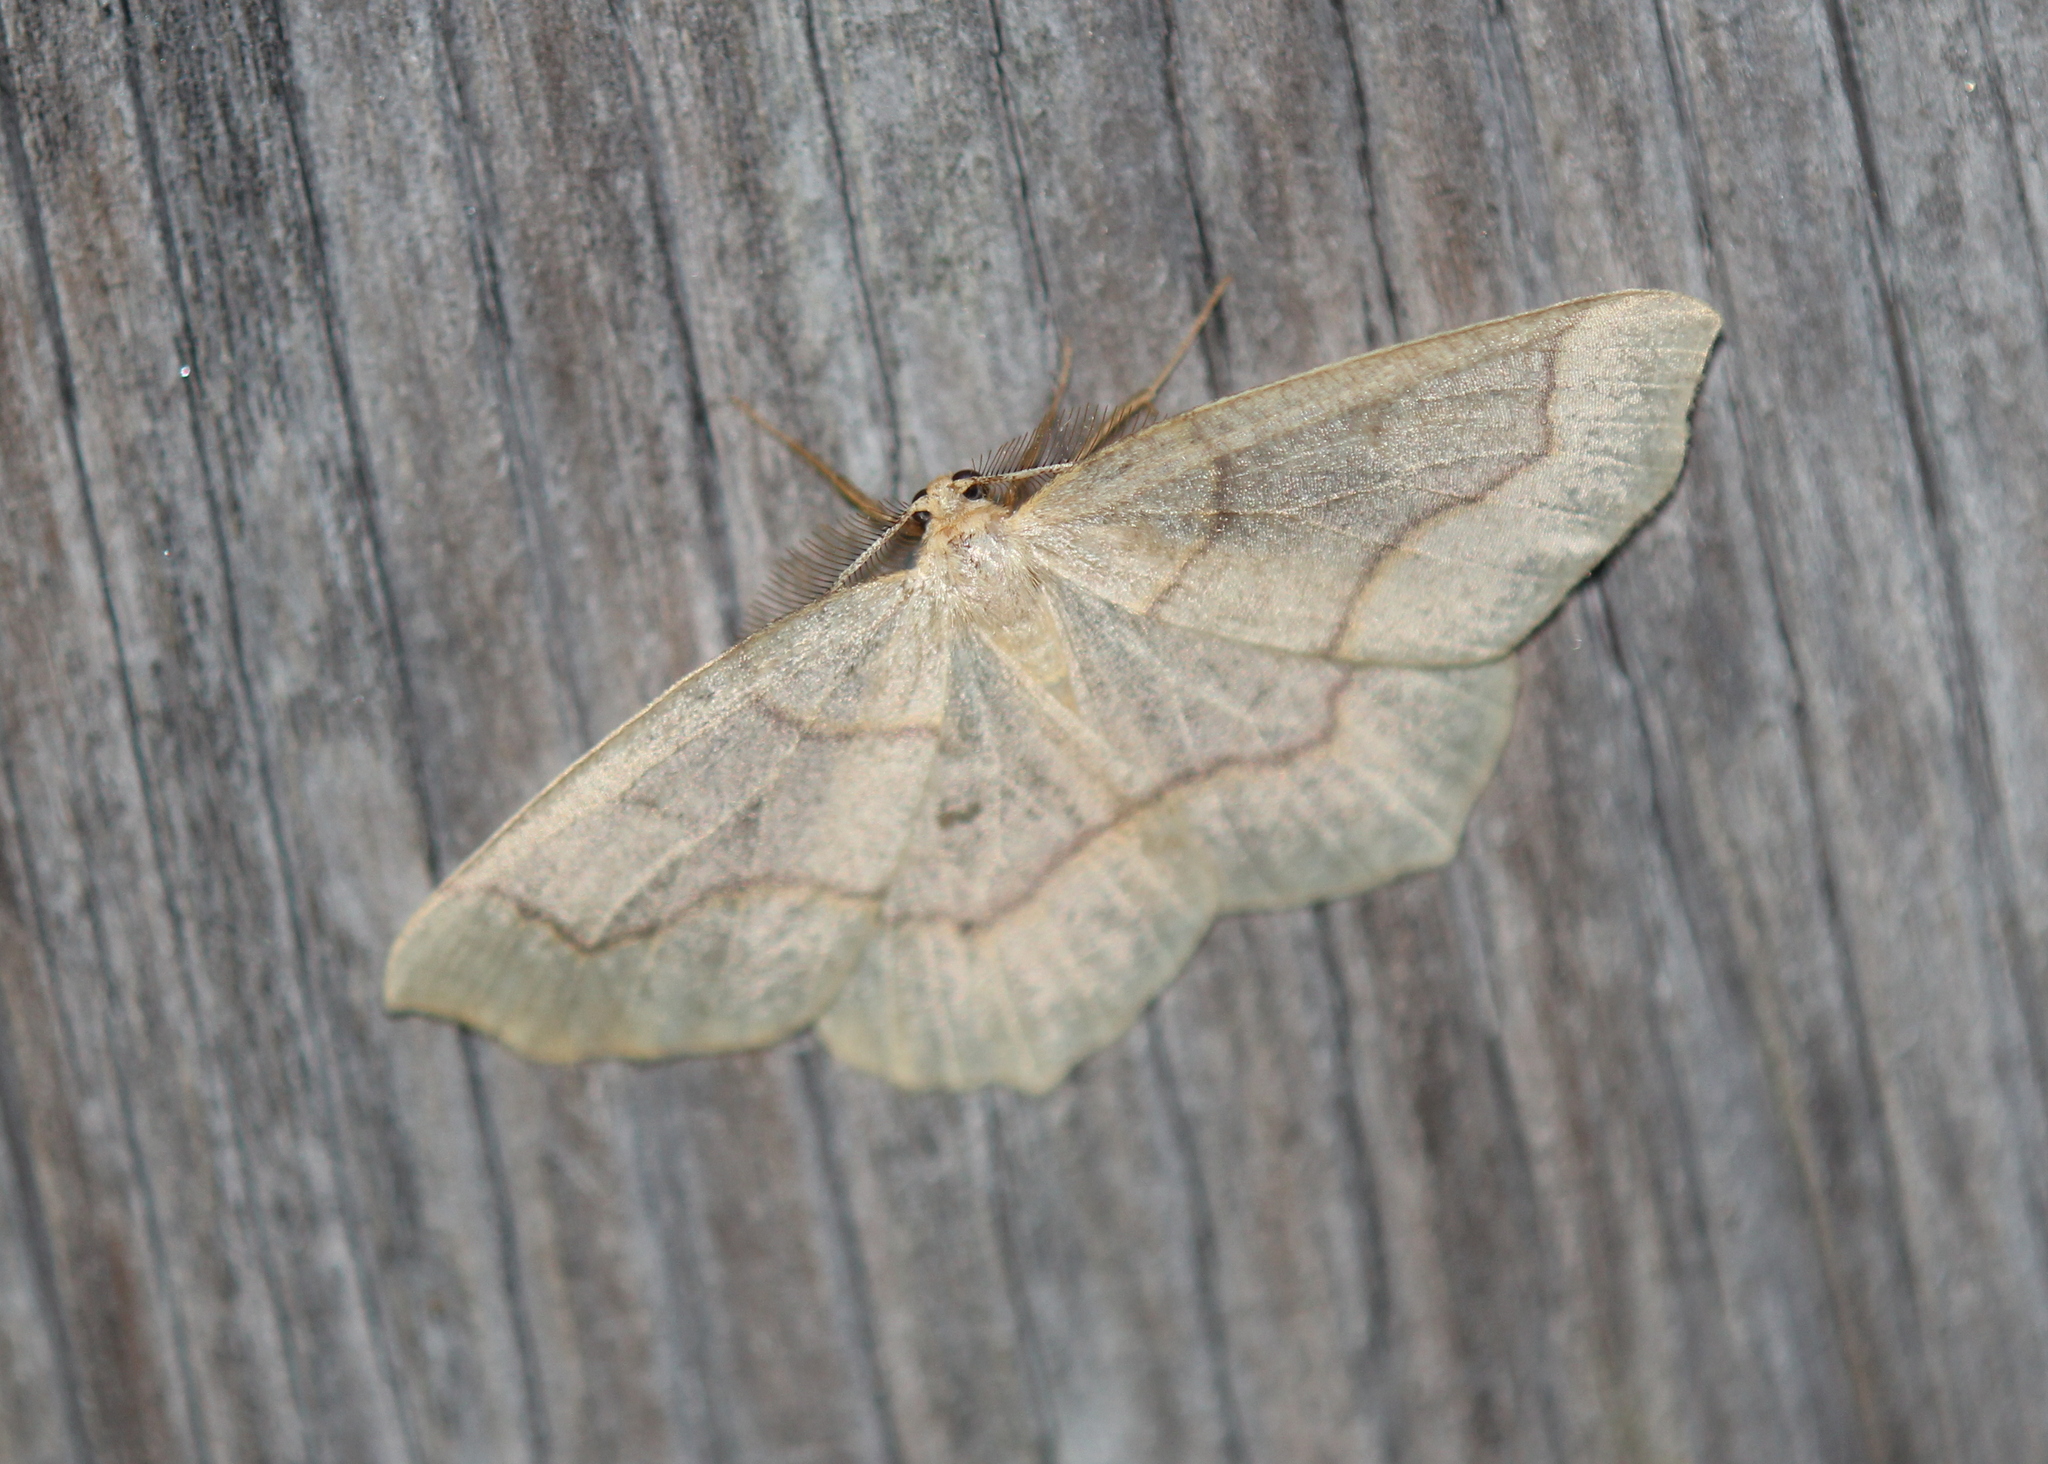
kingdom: Animalia
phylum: Arthropoda
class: Insecta
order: Lepidoptera
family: Geometridae
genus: Lambdina
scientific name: Lambdina fiscellaria
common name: Hemlock looper
